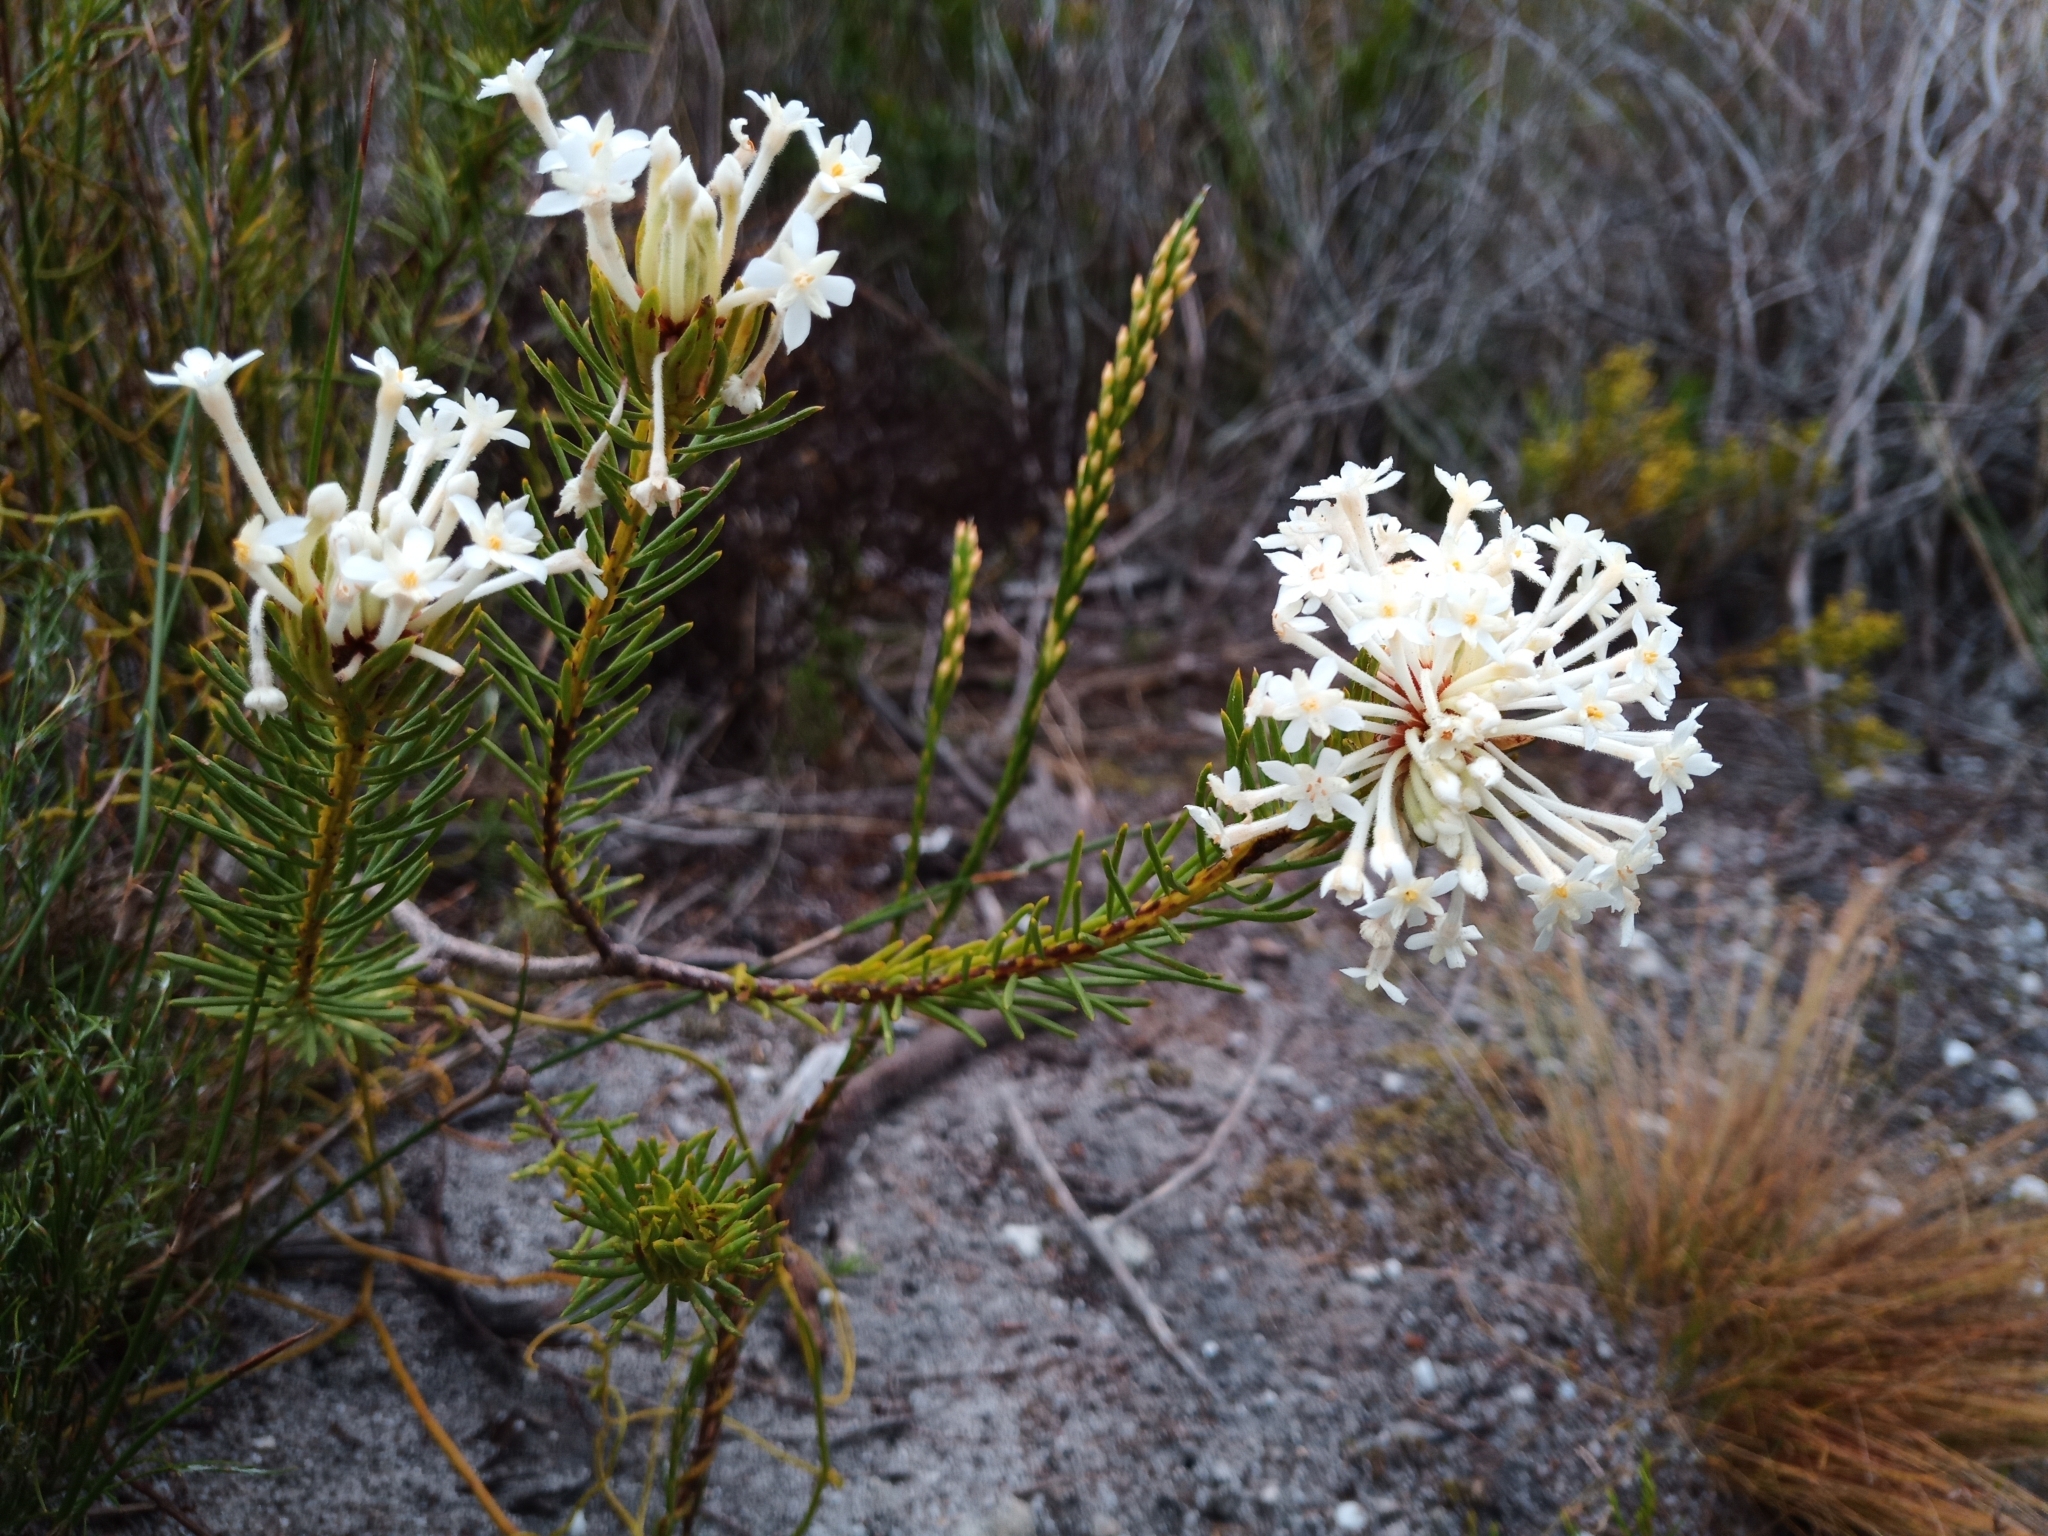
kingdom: Plantae
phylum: Tracheophyta
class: Magnoliopsida
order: Malvales
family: Thymelaeaceae
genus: Gnidia
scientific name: Gnidia pinifolia
